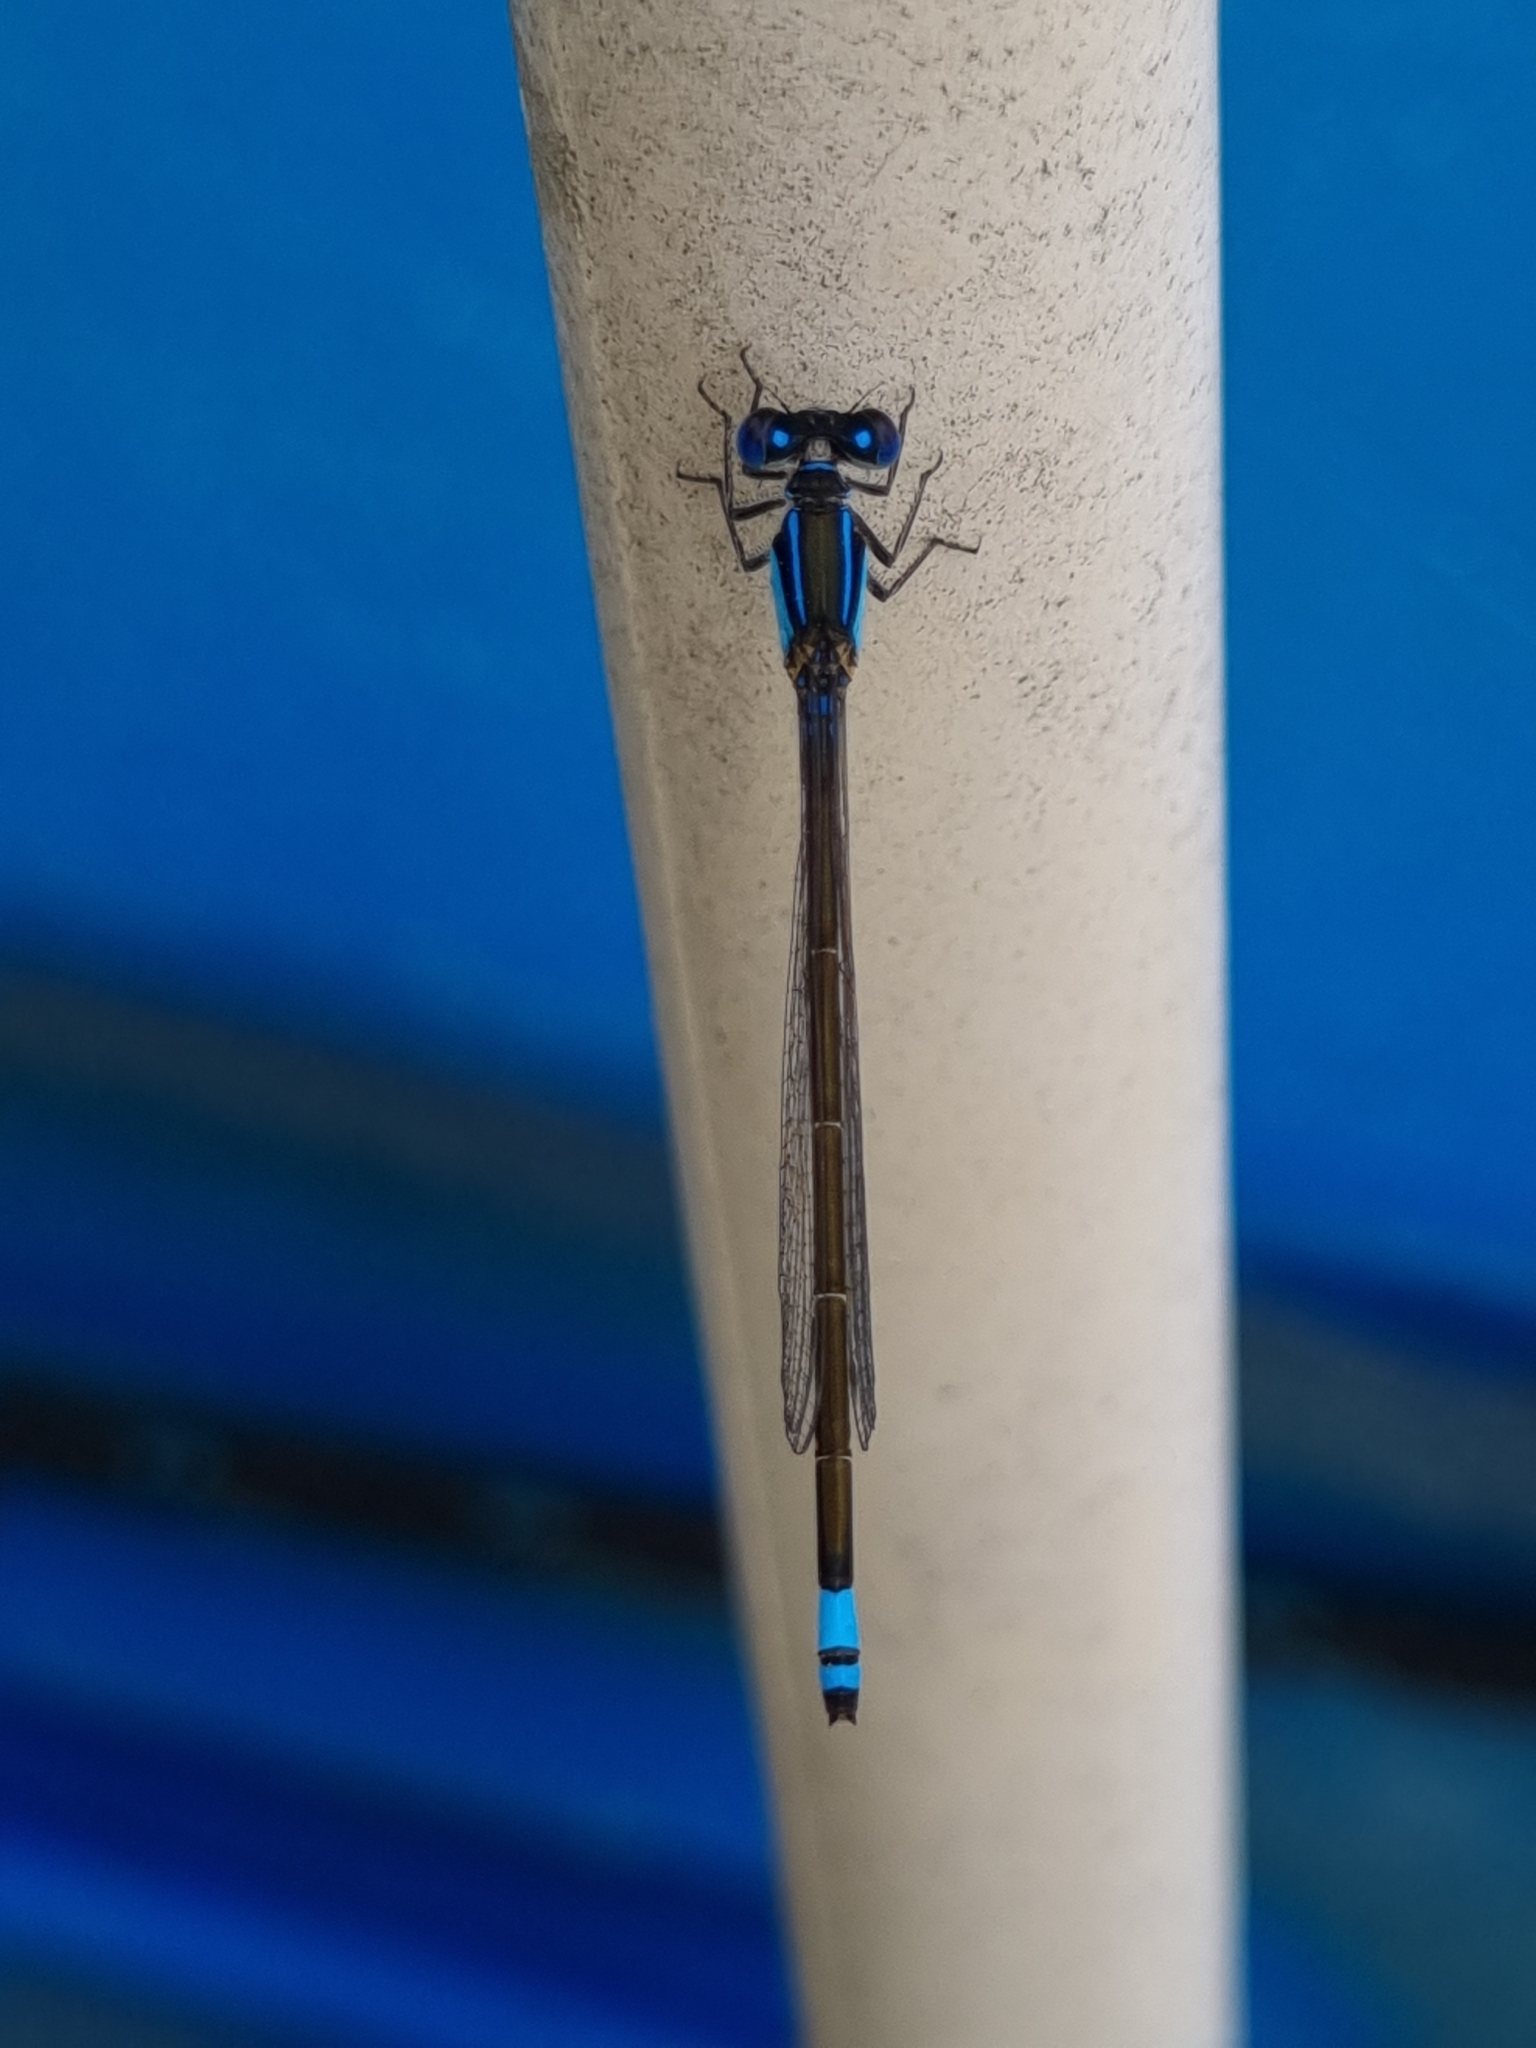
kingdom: Animalia
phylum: Arthropoda
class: Insecta
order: Odonata
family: Coenagrionidae
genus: Ischnura
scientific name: Ischnura heterosticta
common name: Common bluetail
